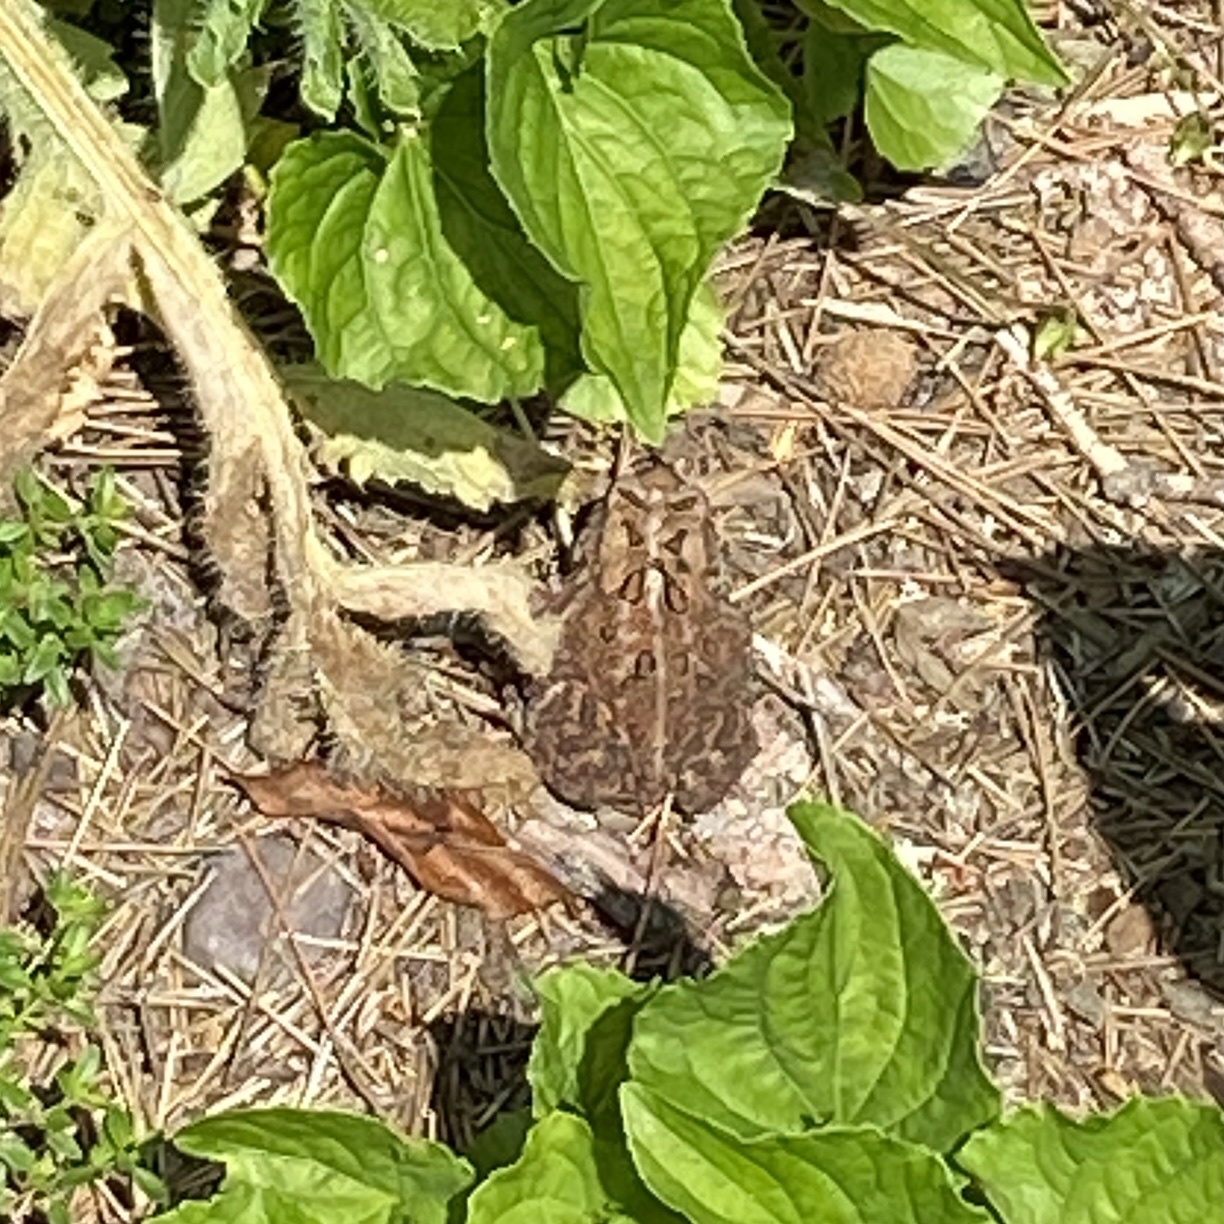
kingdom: Animalia
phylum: Chordata
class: Amphibia
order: Anura
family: Bufonidae
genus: Anaxyrus
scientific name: Anaxyrus americanus
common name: American toad
